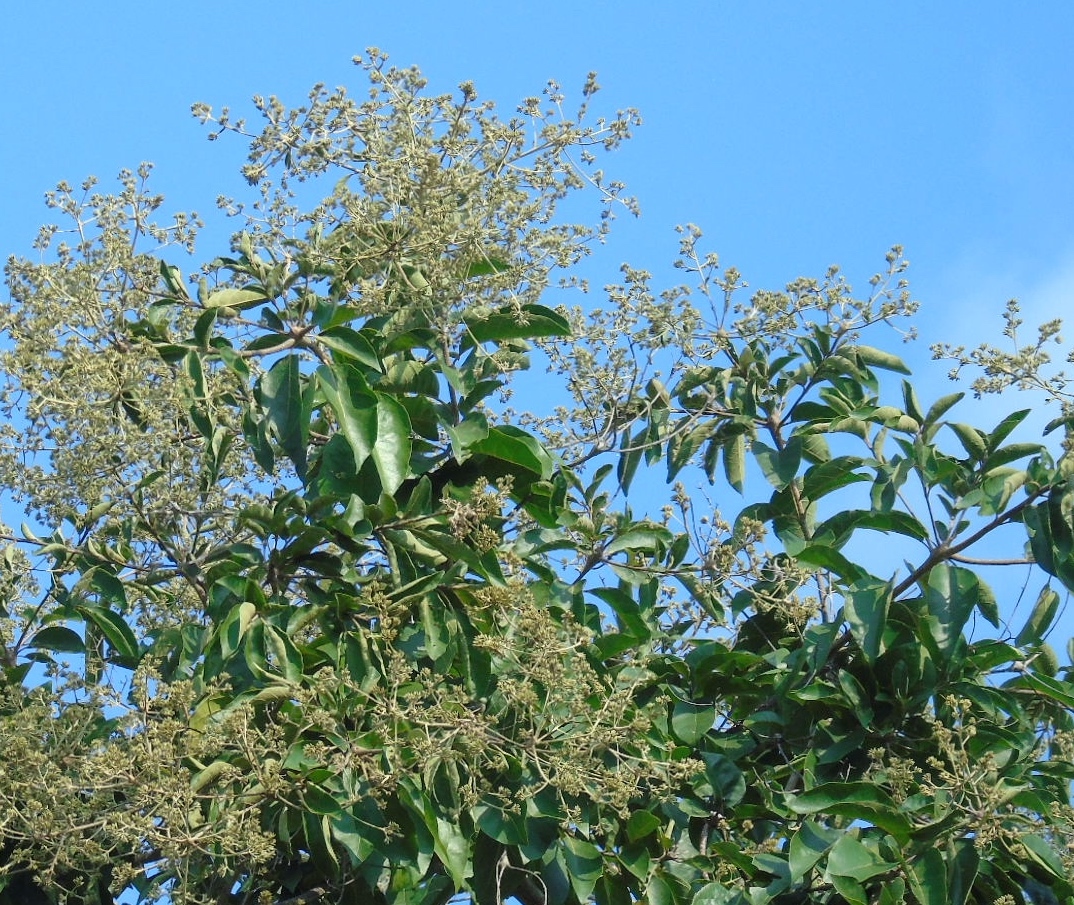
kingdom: Plantae
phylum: Tracheophyta
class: Magnoliopsida
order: Boraginales
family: Cordiaceae
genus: Cordia
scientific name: Cordia alliodora
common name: Spanish elm
